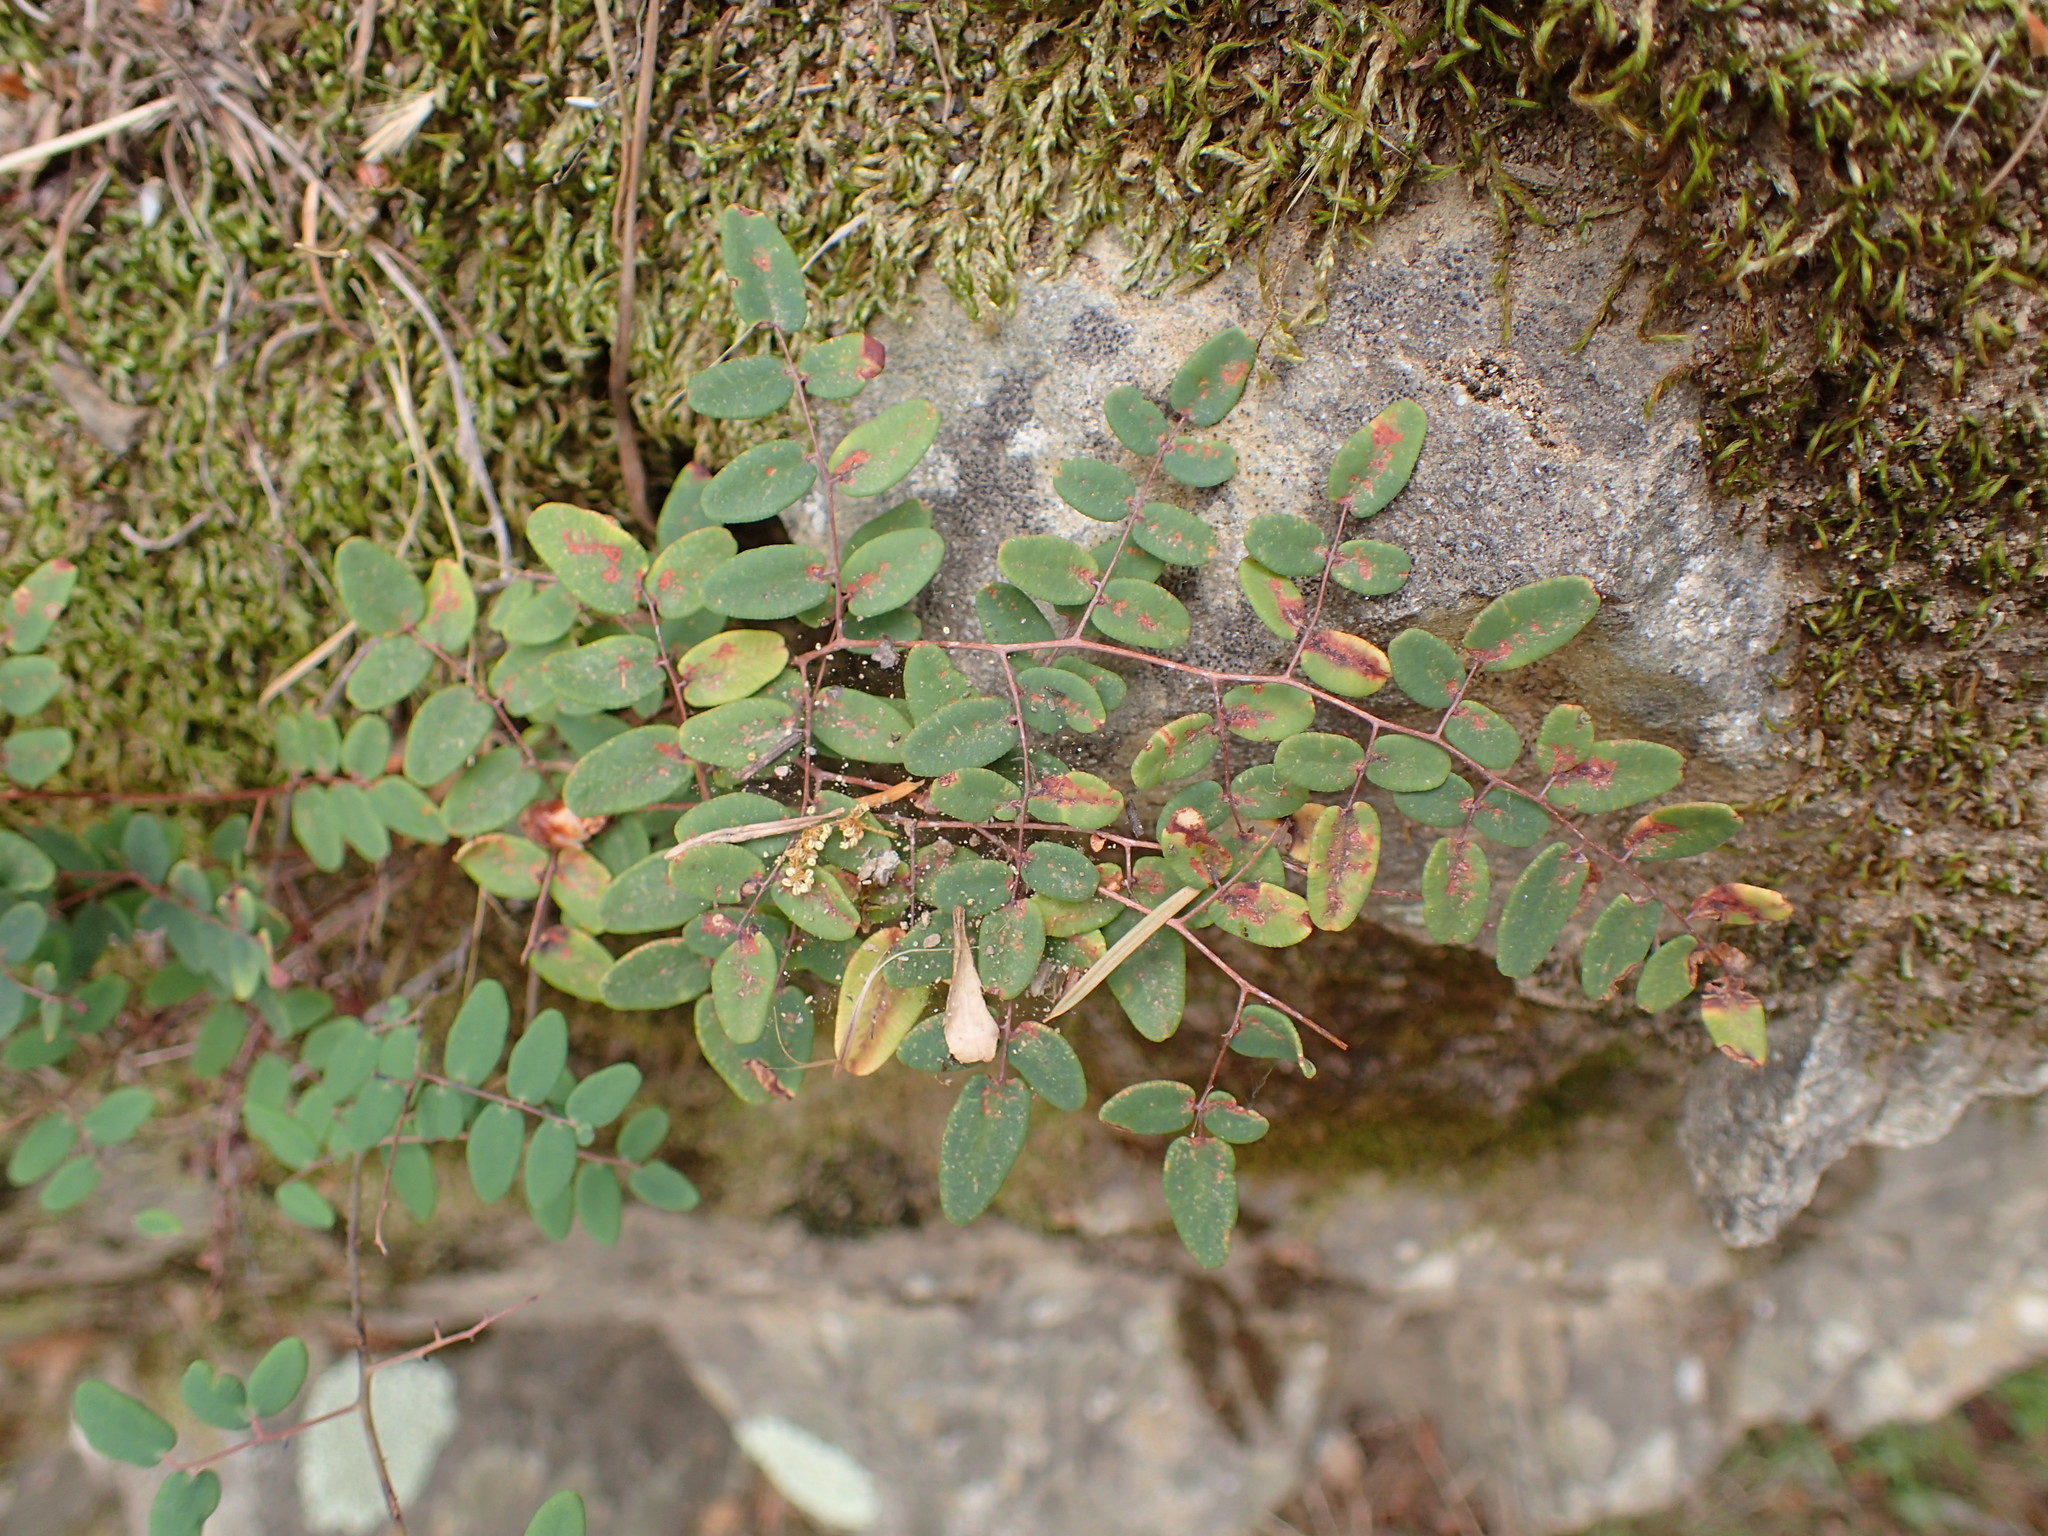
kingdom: Plantae
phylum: Tracheophyta
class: Polypodiopsida
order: Polypodiales
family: Pteridaceae
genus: Pellaea
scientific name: Pellaea andromedifolia
